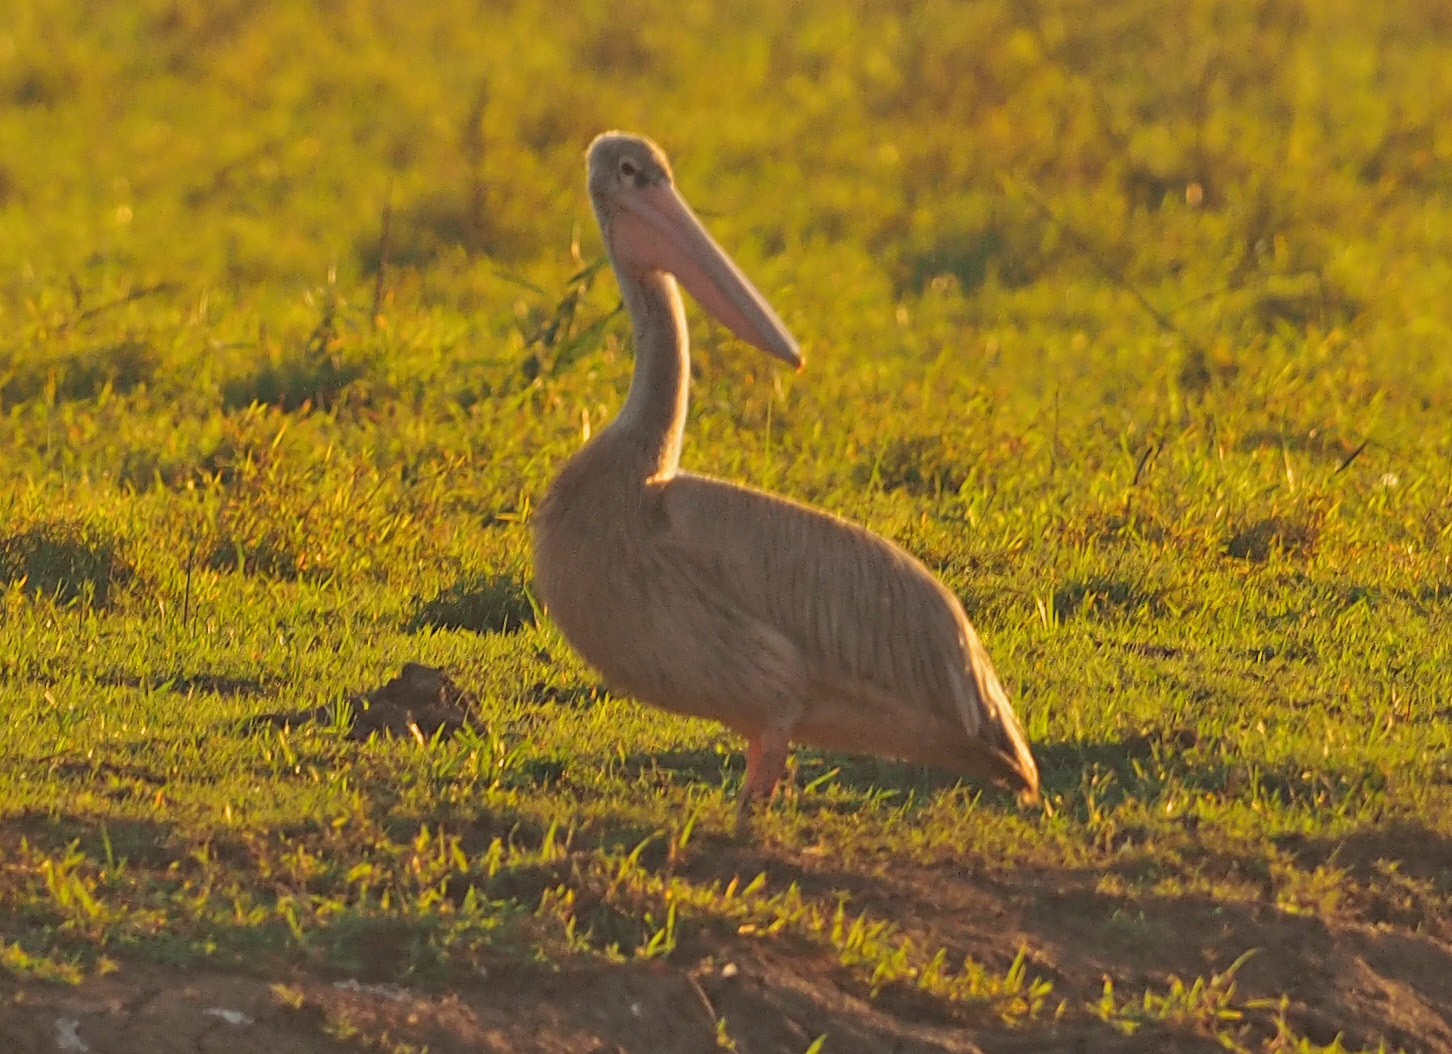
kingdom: Animalia
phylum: Chordata
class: Aves
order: Pelecaniformes
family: Pelecanidae
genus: Pelecanus
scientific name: Pelecanus rufescens
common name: Pink-backed pelican
